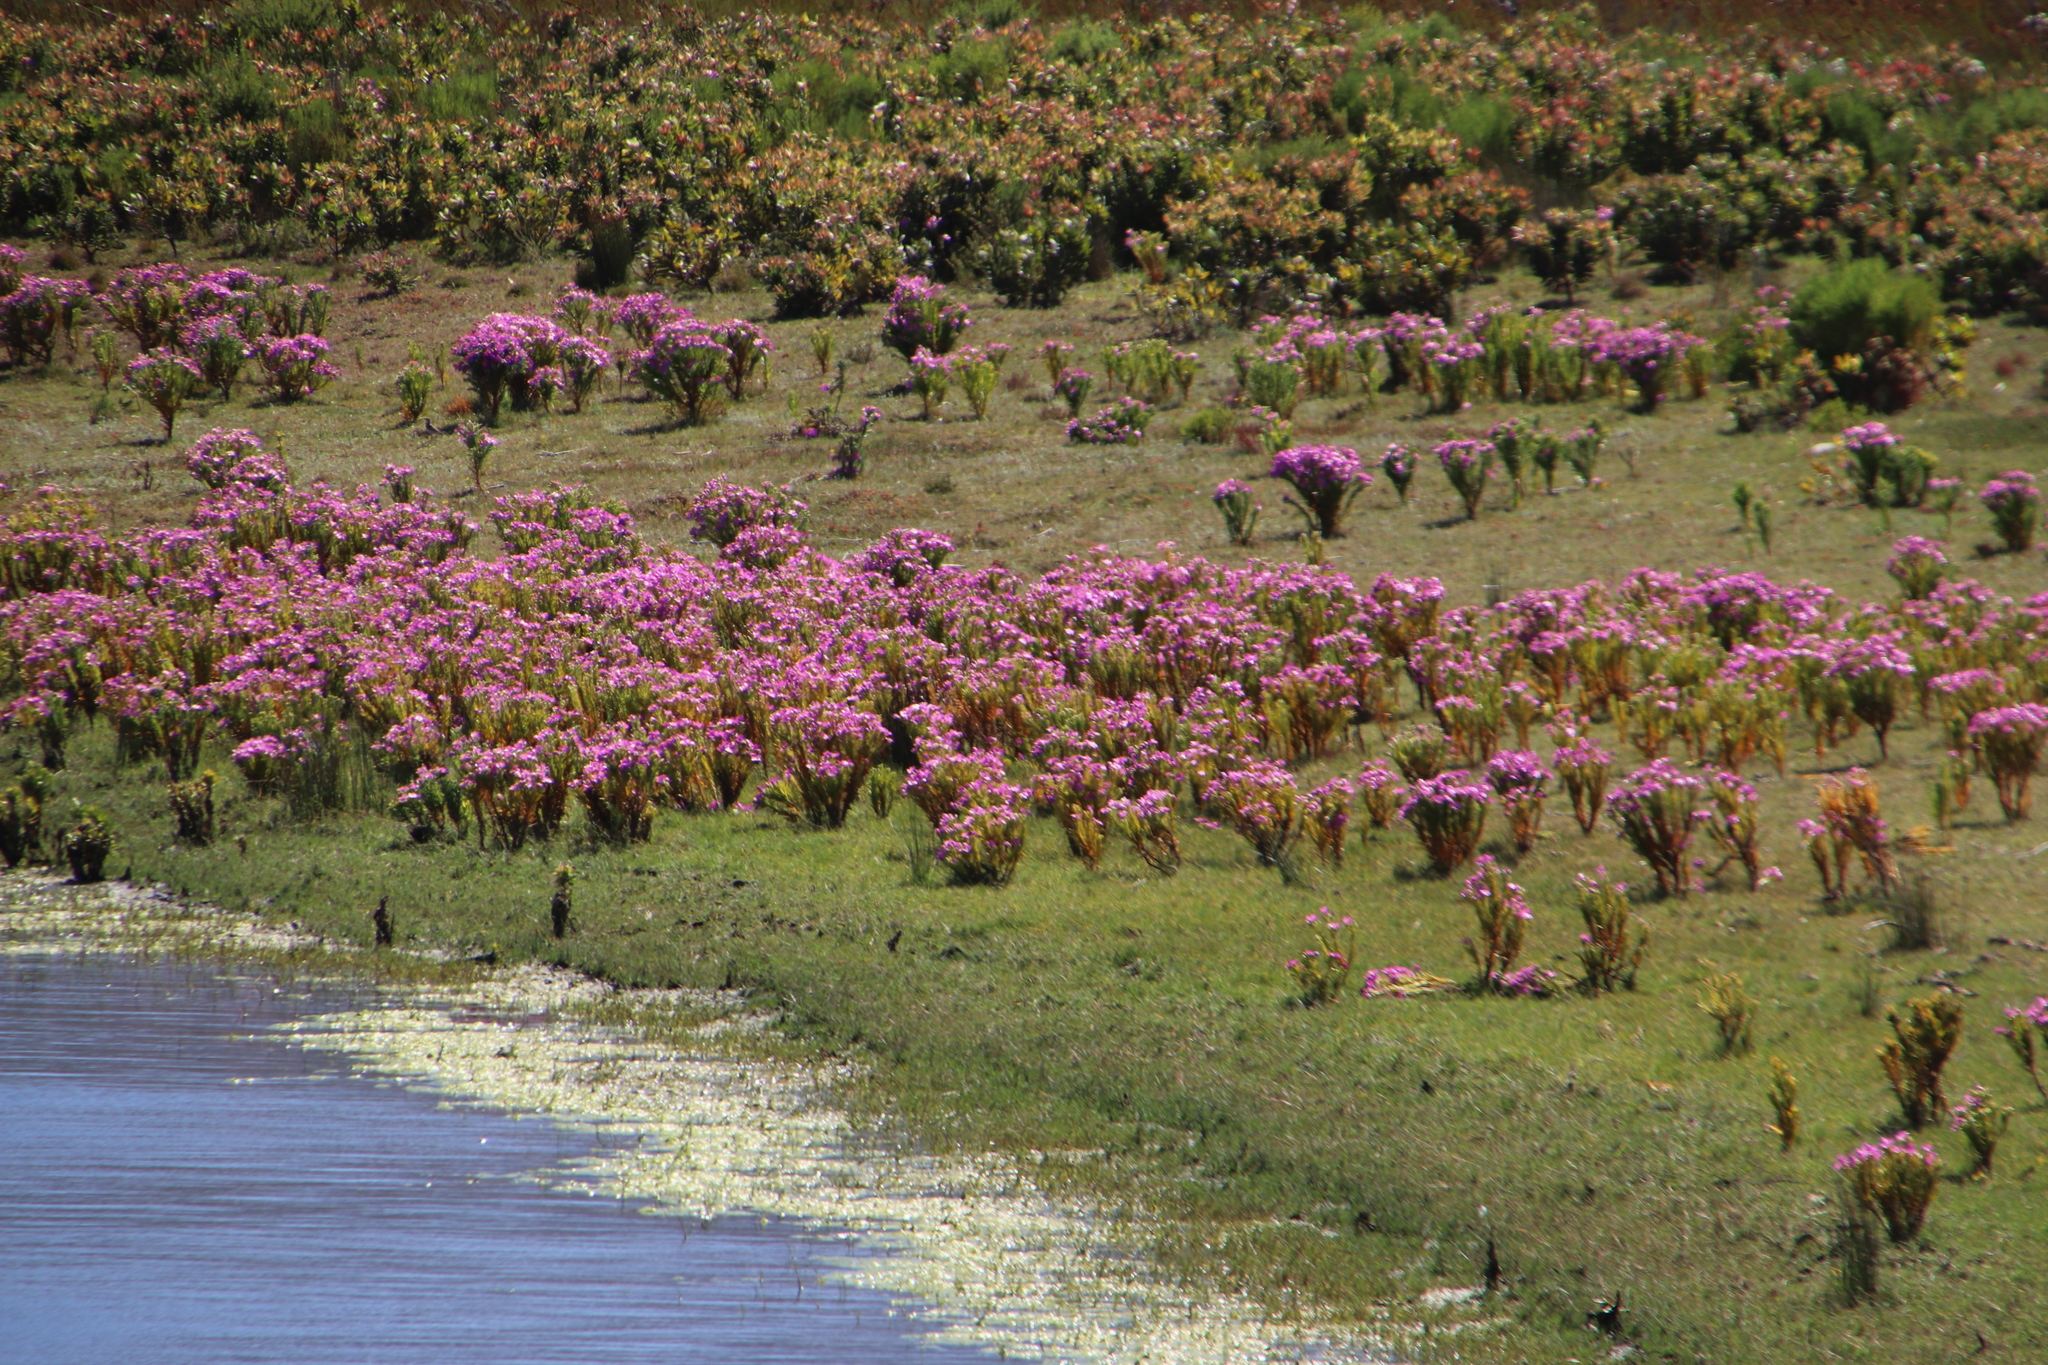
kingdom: Plantae
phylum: Tracheophyta
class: Magnoliopsida
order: Gentianales
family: Gentianaceae
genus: Orphium
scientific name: Orphium frutescens
